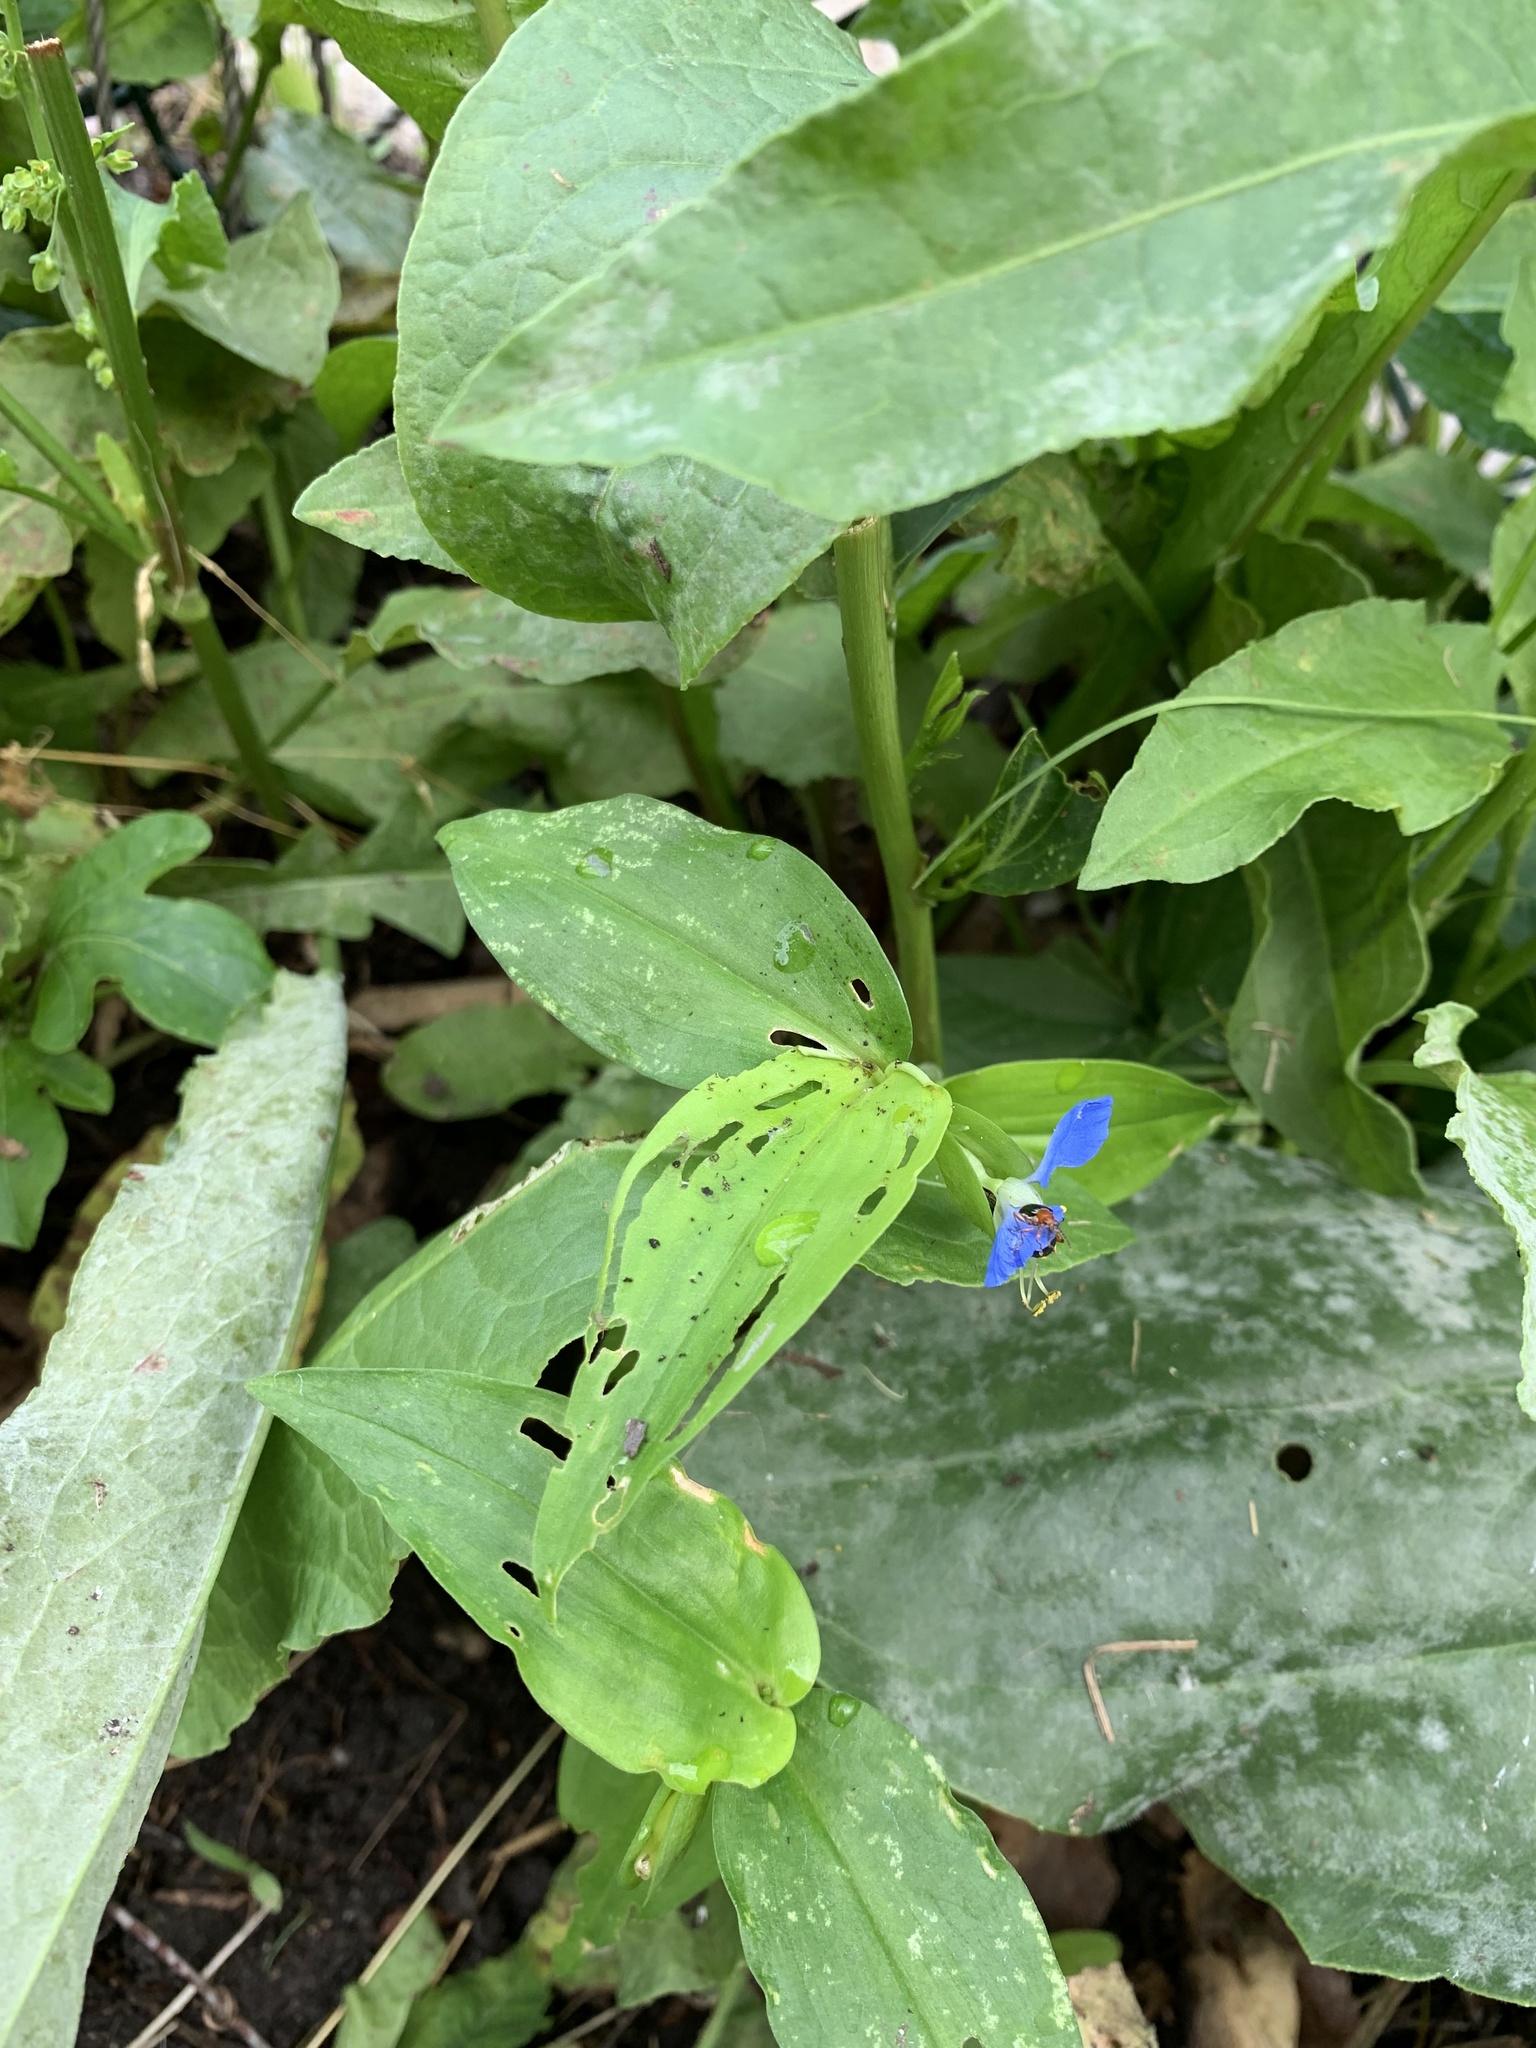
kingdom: Plantae
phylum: Tracheophyta
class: Liliopsida
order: Commelinales
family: Commelinaceae
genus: Commelina
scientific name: Commelina communis
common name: Asiatic dayflower
